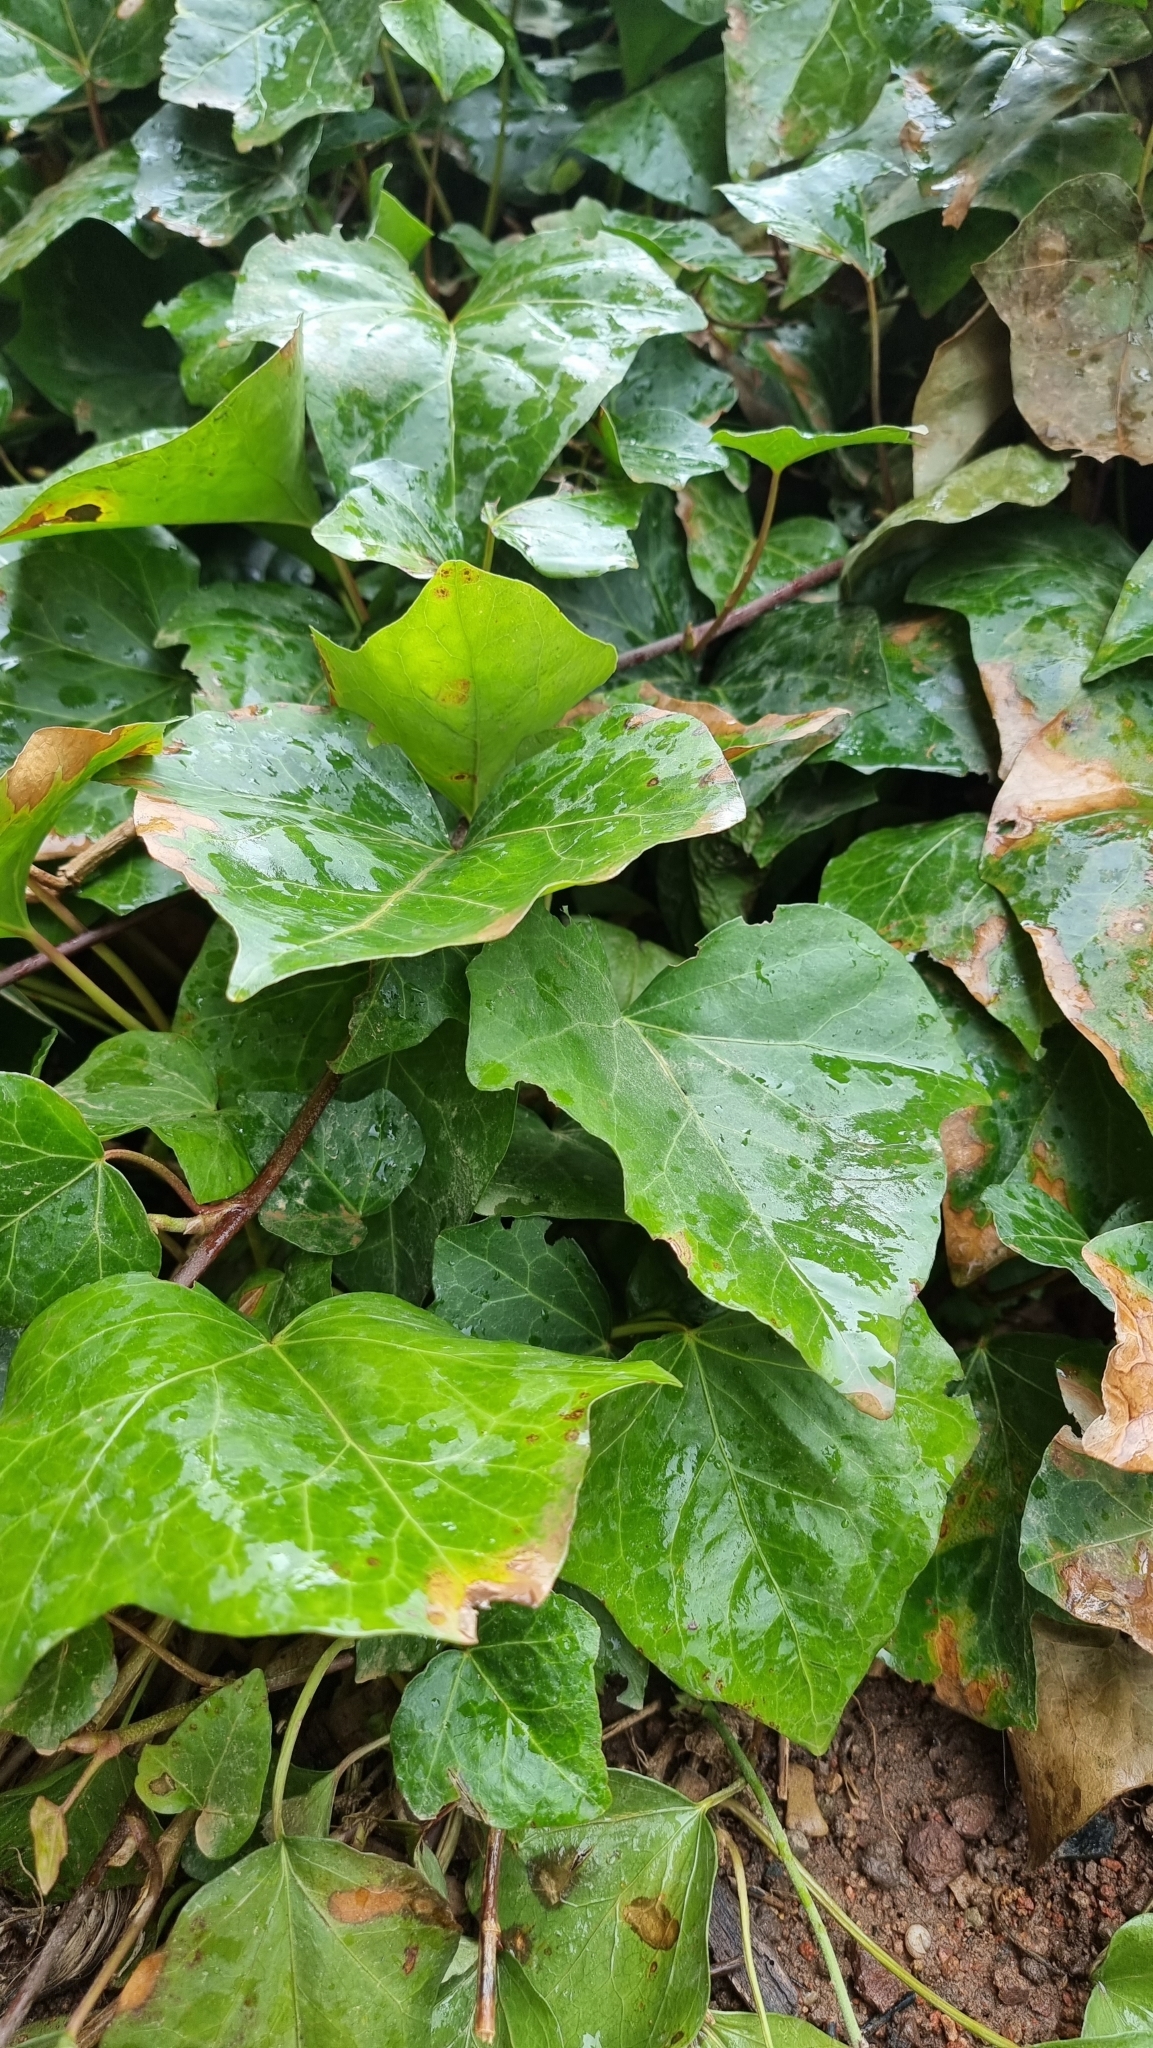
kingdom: Plantae
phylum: Tracheophyta
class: Magnoliopsida
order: Apiales
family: Araliaceae
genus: Hedera
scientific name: Hedera helix
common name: Ivy
